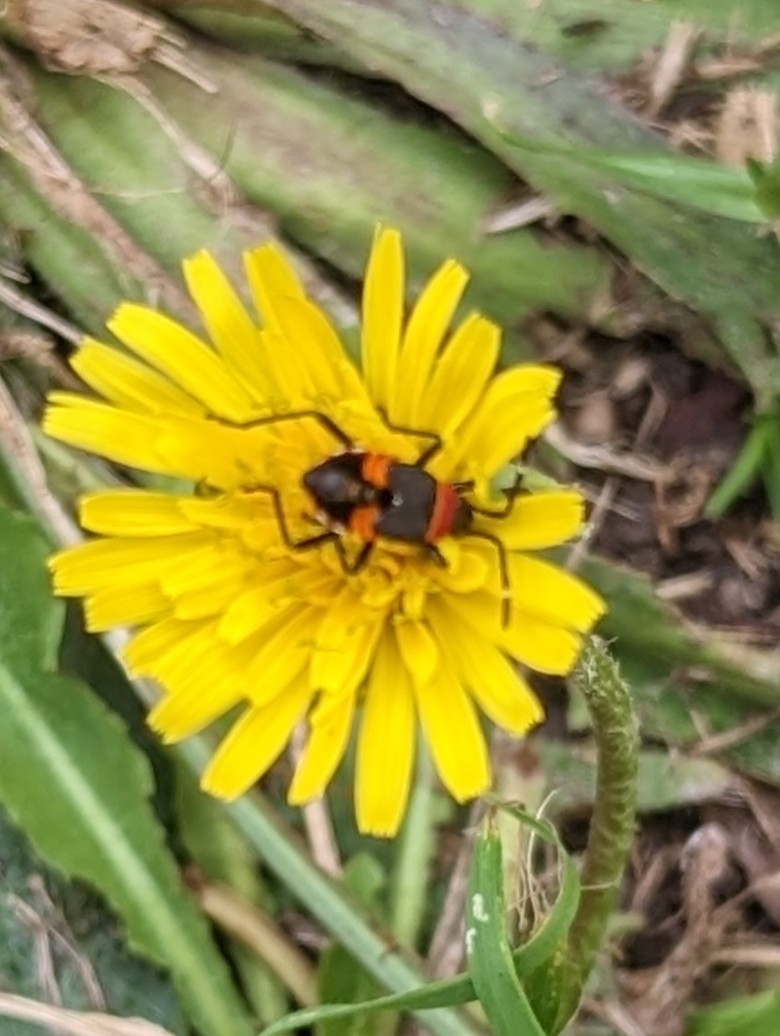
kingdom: Animalia
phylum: Arthropoda
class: Insecta
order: Hemiptera
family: Pyrrhocoridae
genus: Dindymus
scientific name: Dindymus
